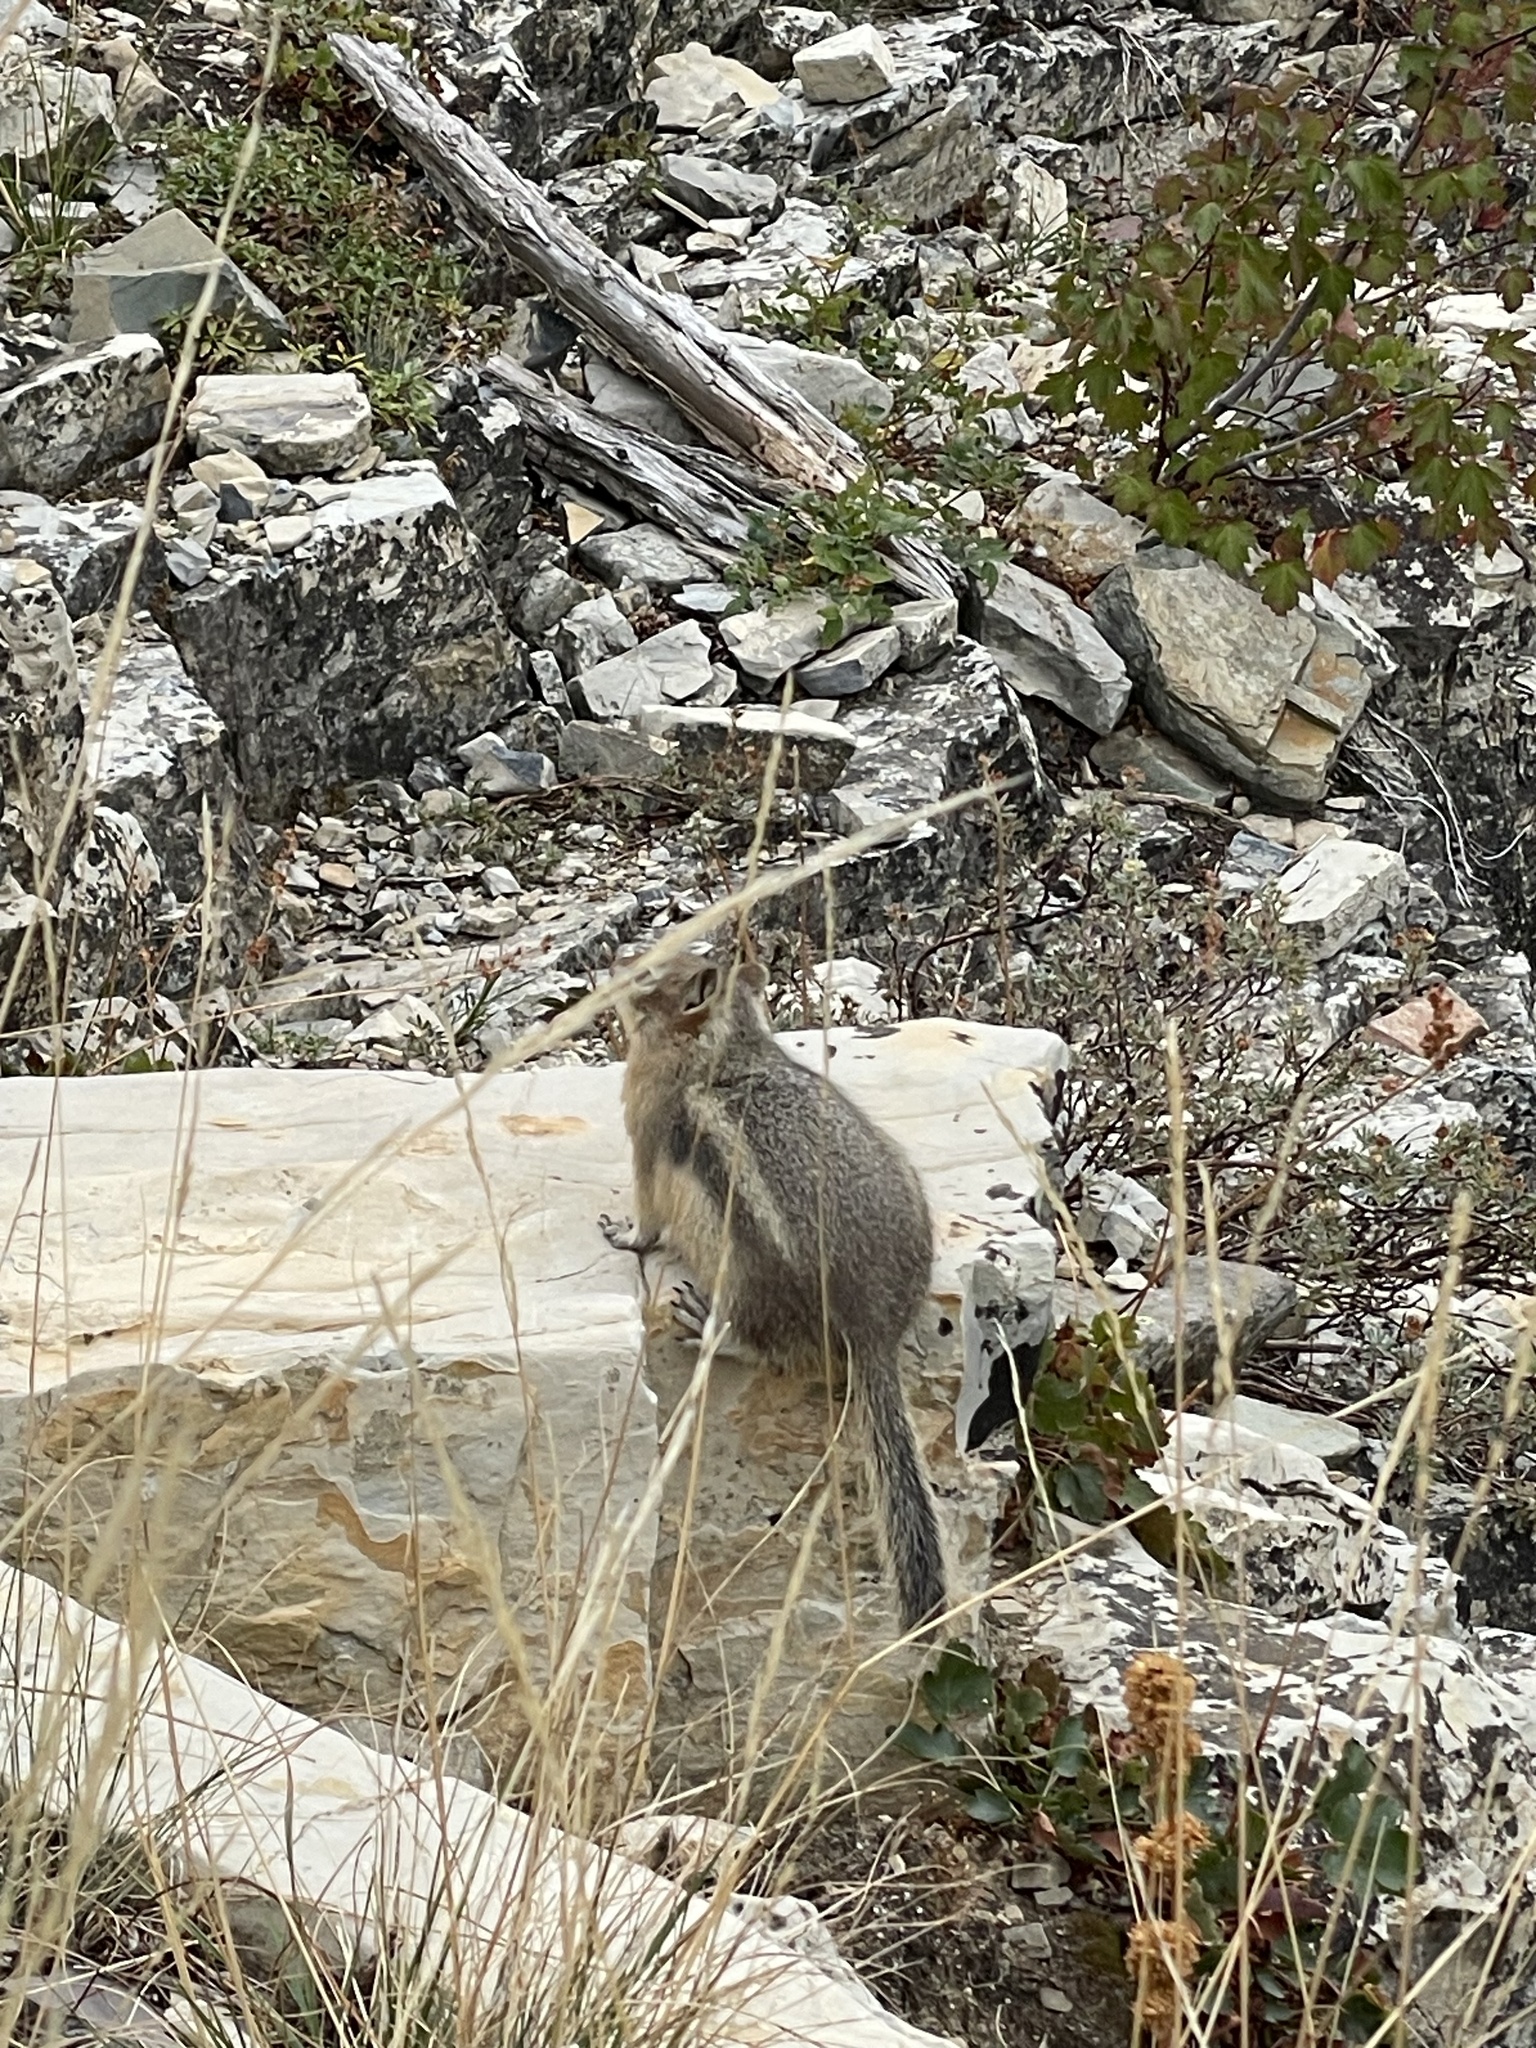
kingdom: Animalia
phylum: Chordata
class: Mammalia
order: Rodentia
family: Sciuridae
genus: Callospermophilus
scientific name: Callospermophilus lateralis
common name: Golden-mantled ground squirrel
